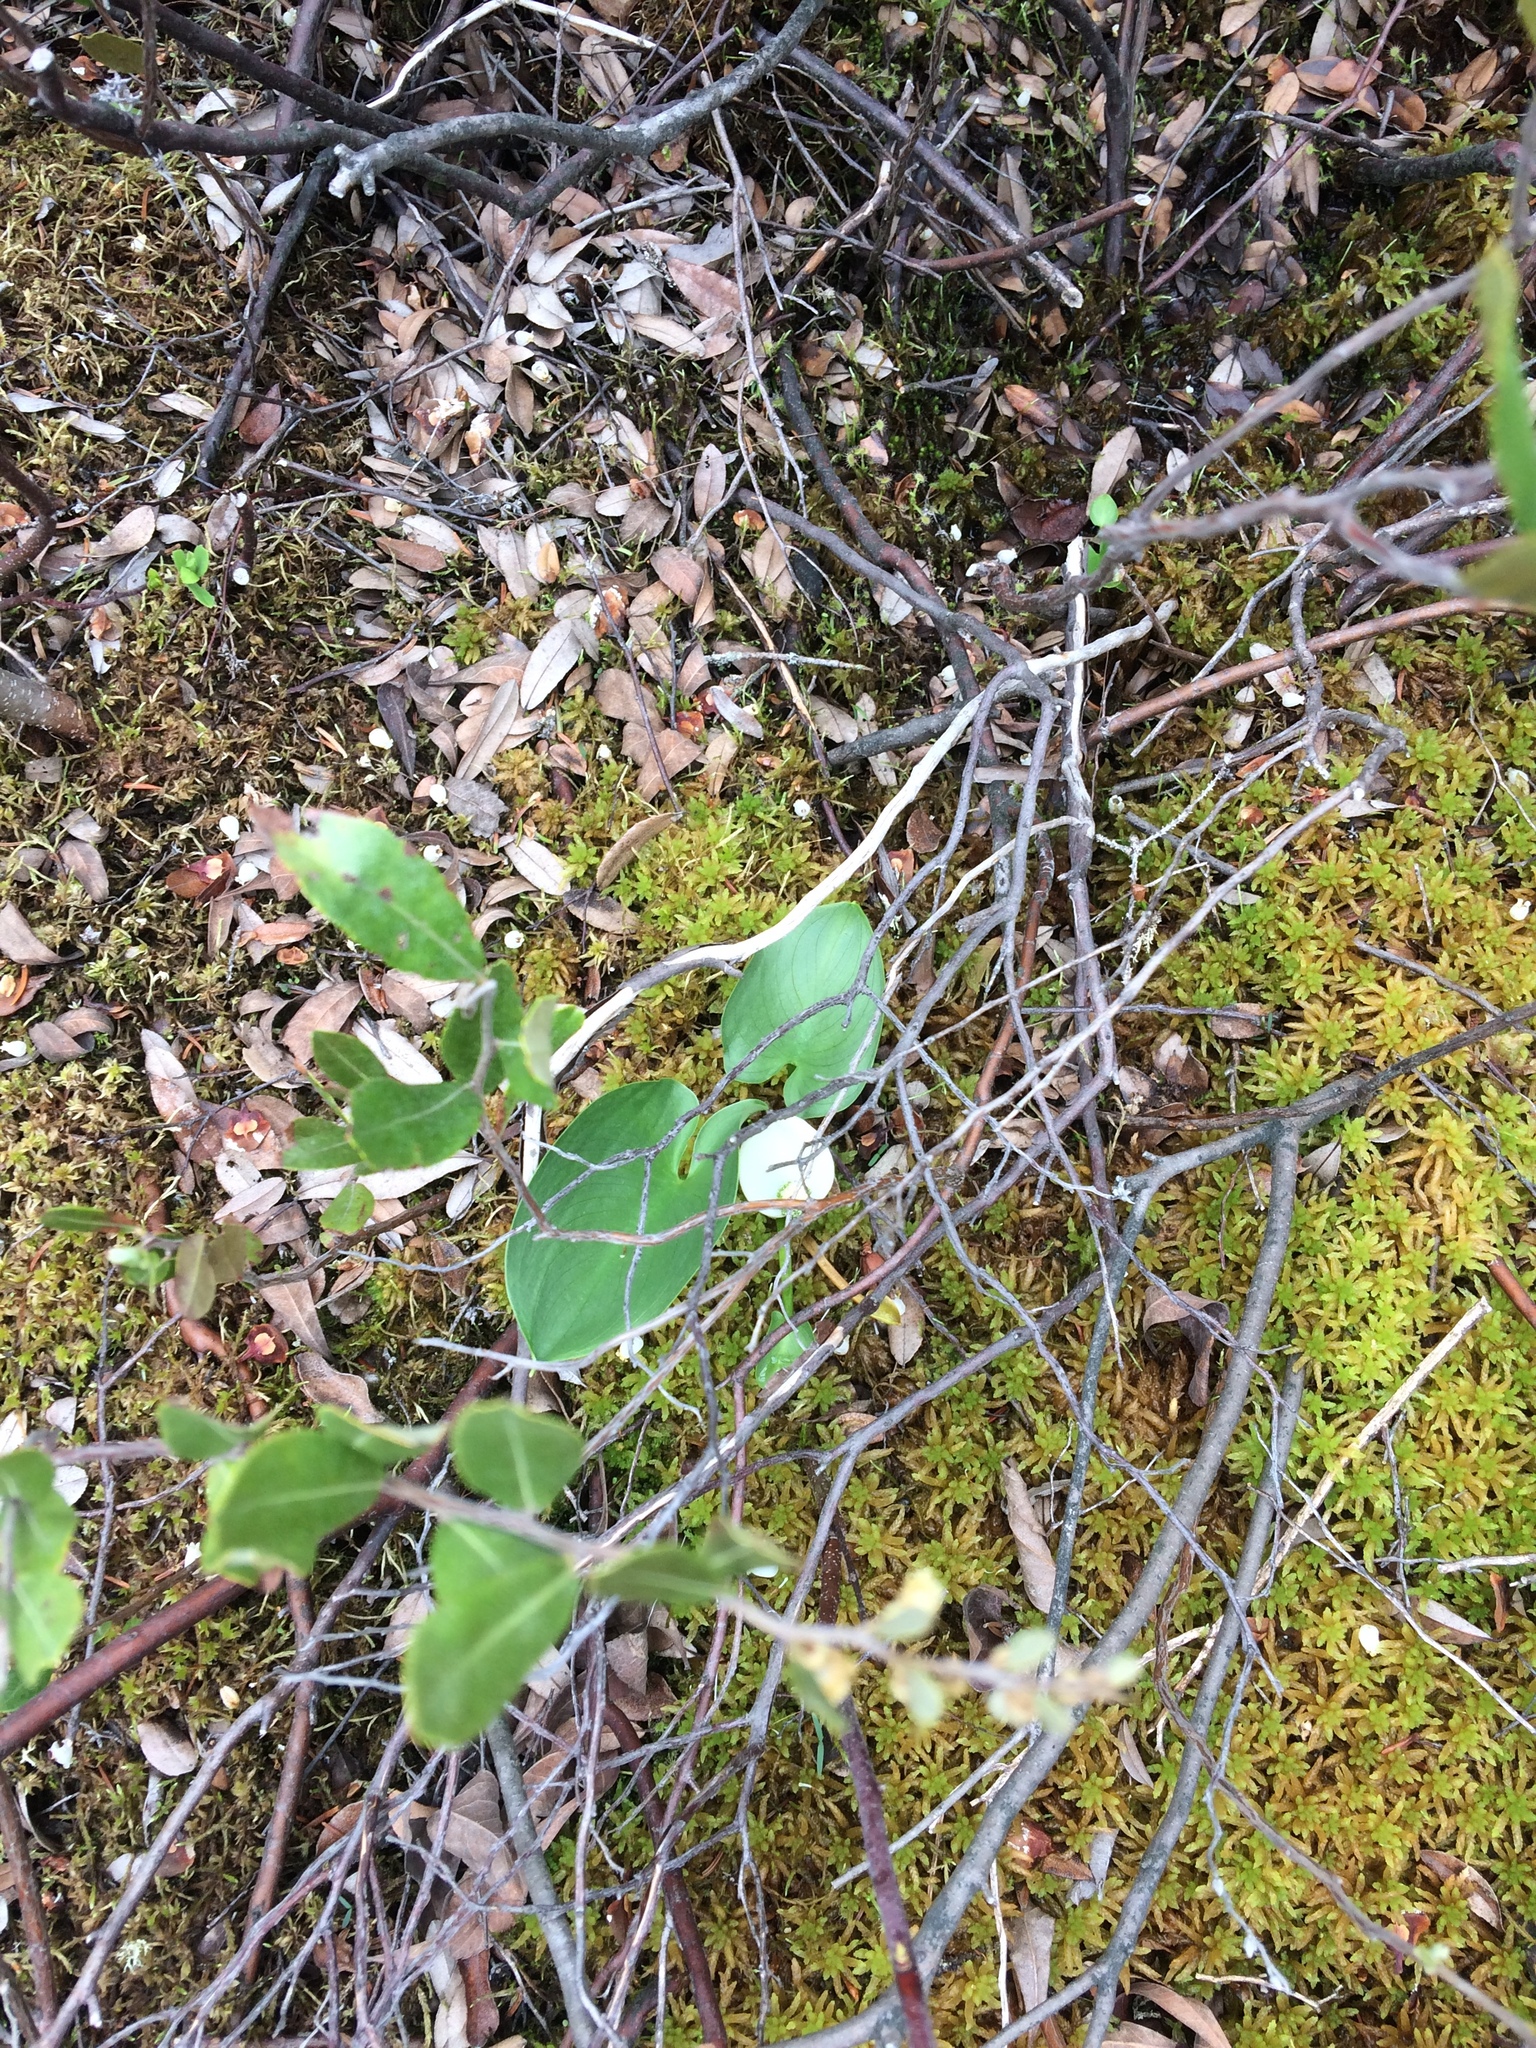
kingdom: Plantae
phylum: Tracheophyta
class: Liliopsida
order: Alismatales
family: Araceae
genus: Calla
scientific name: Calla palustris
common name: Bog arum
